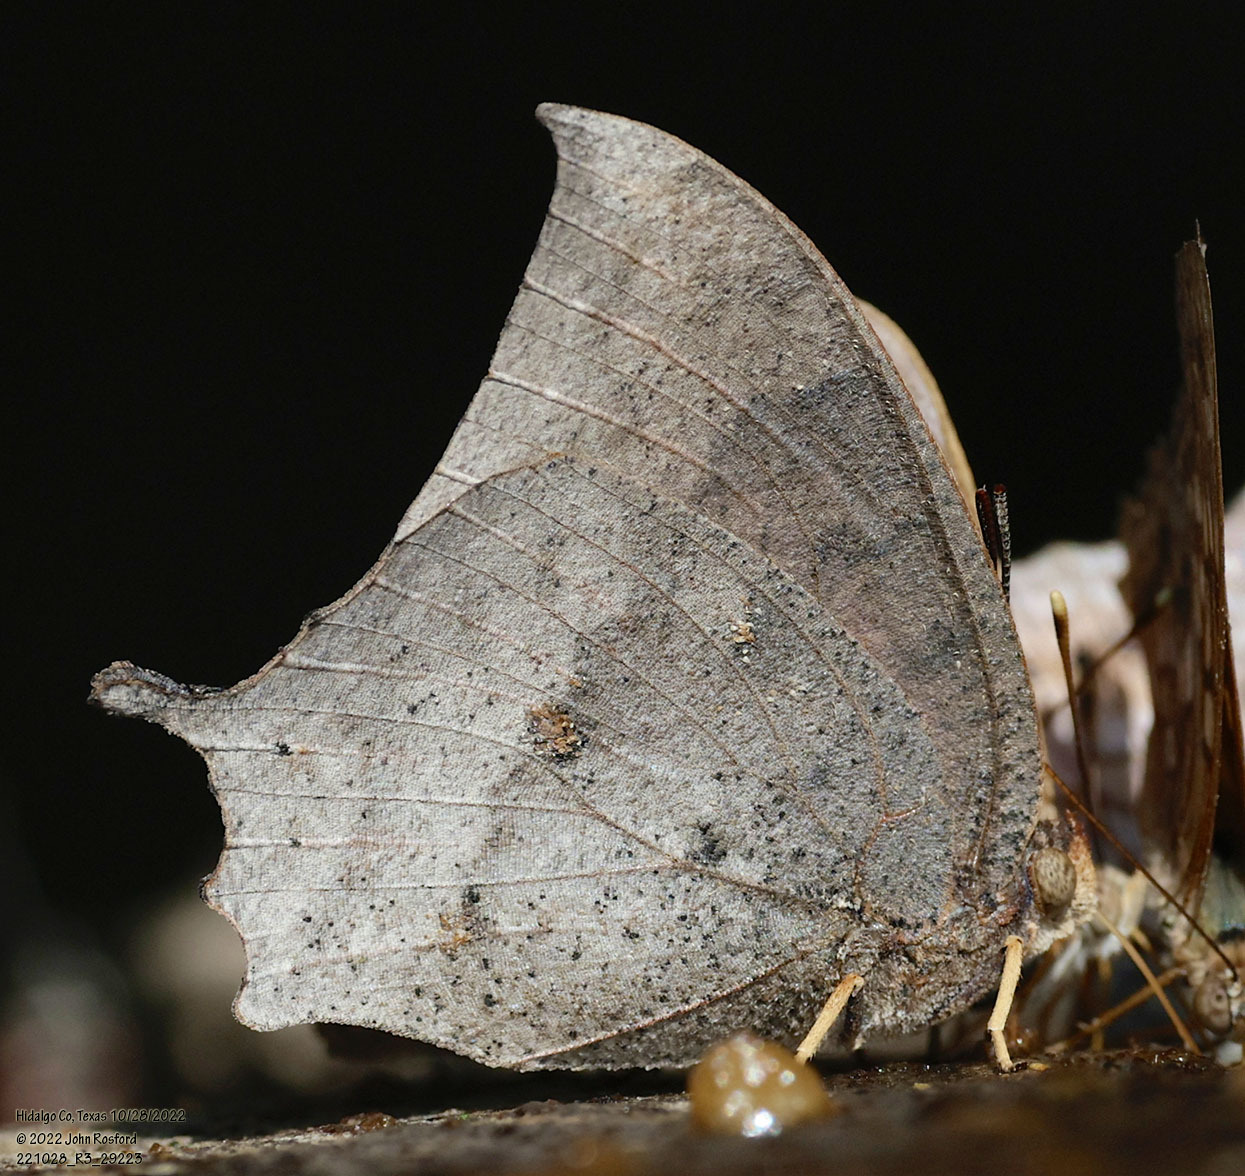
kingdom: Animalia
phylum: Arthropoda
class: Insecta
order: Lepidoptera
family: Nymphalidae
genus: Anaea
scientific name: Anaea aidea
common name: Tropical leafwing
